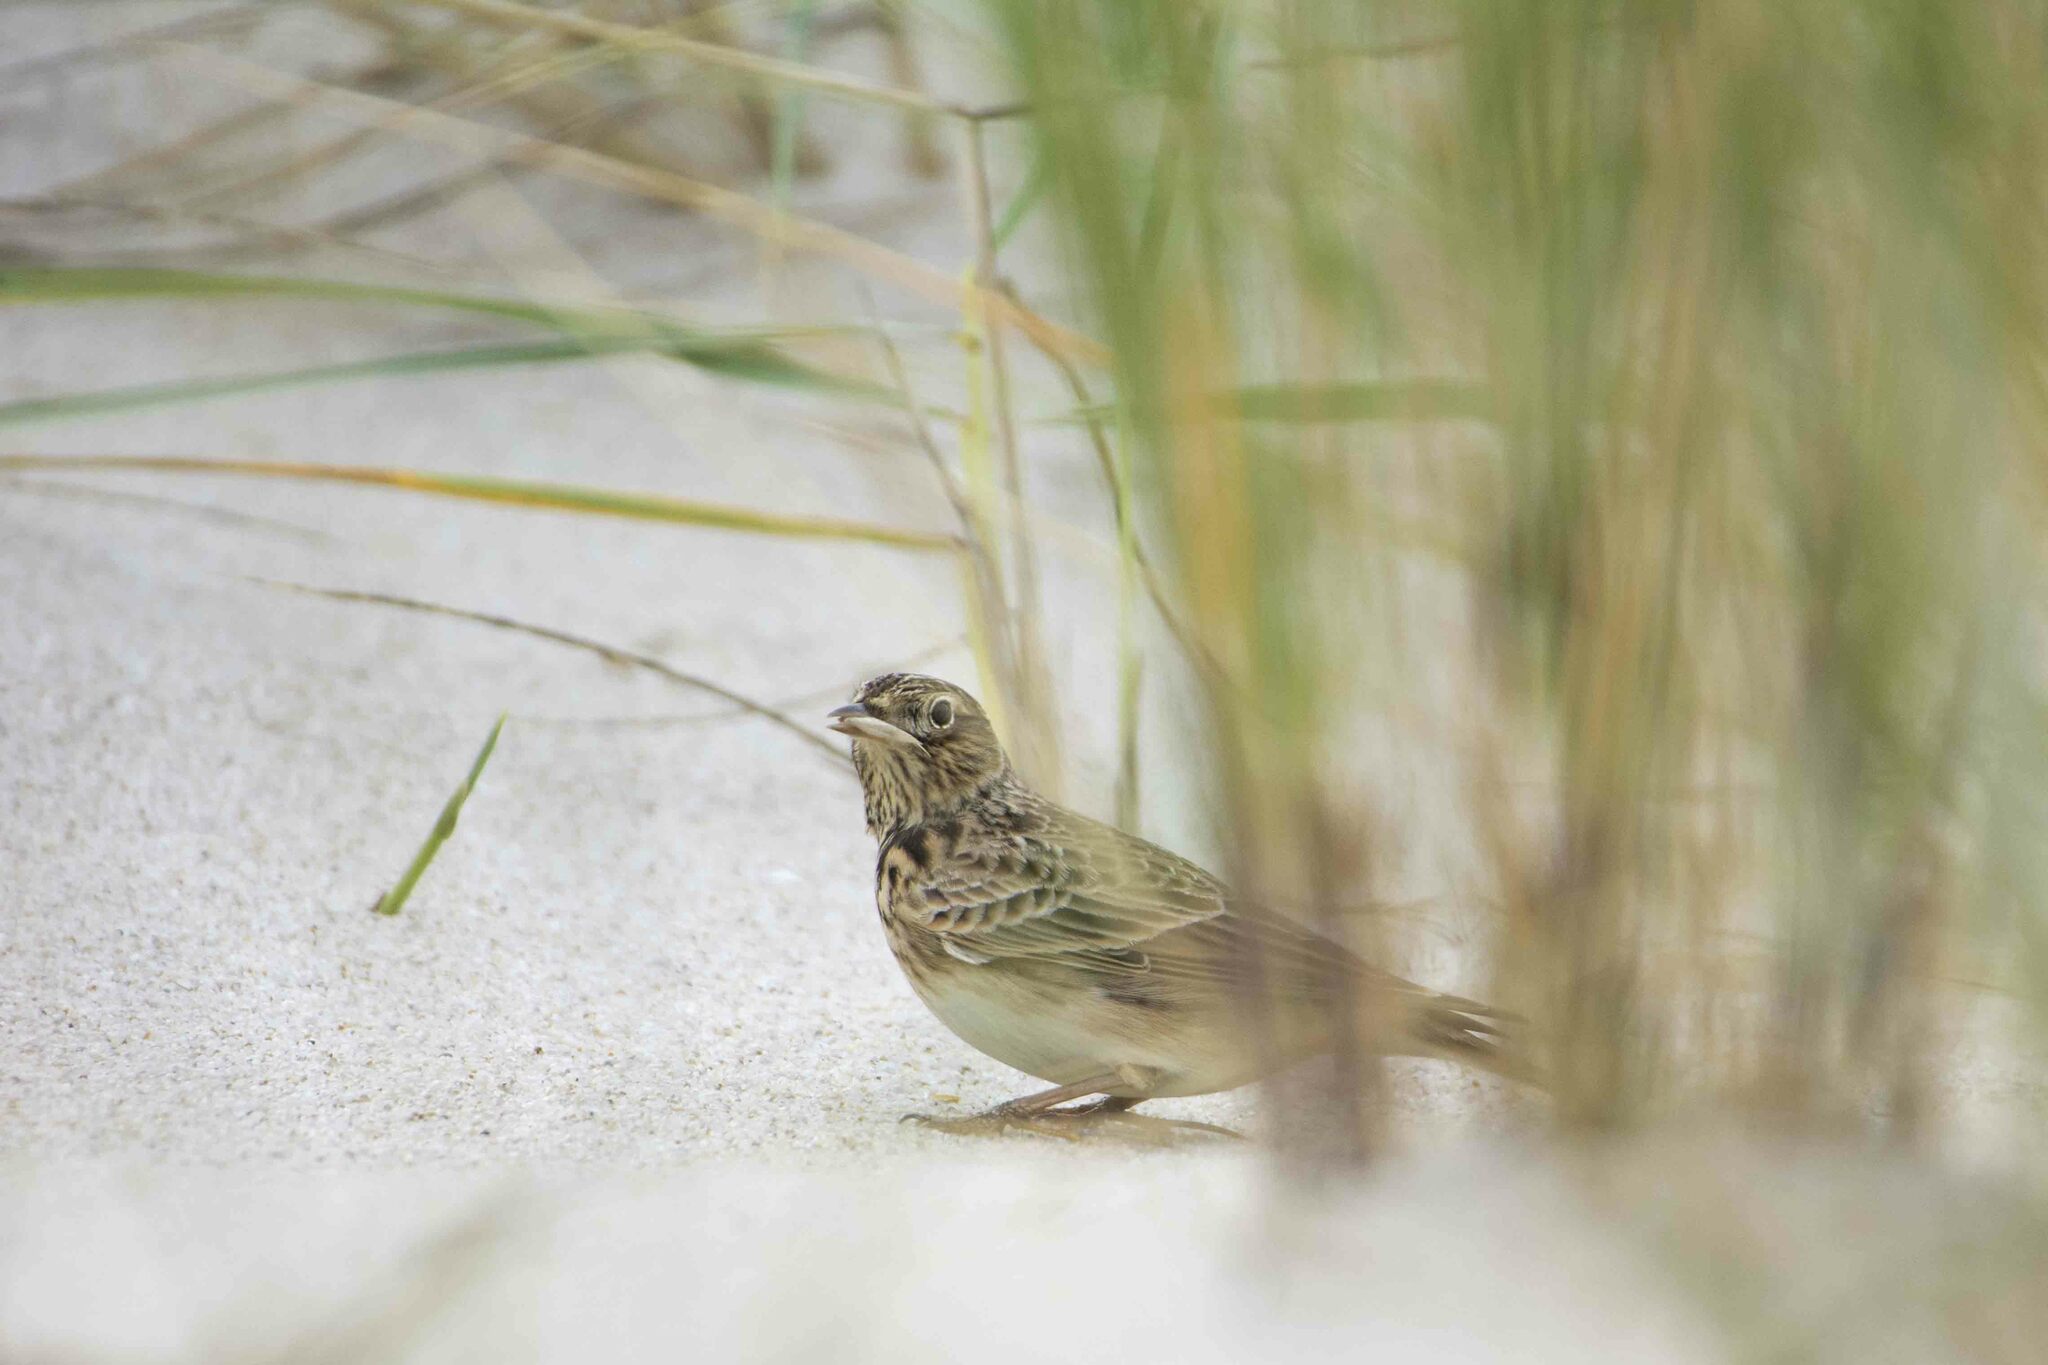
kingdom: Animalia
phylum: Chordata
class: Aves
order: Passeriformes
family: Alaudidae
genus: Alauda
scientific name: Alauda arvensis
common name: Eurasian skylark
